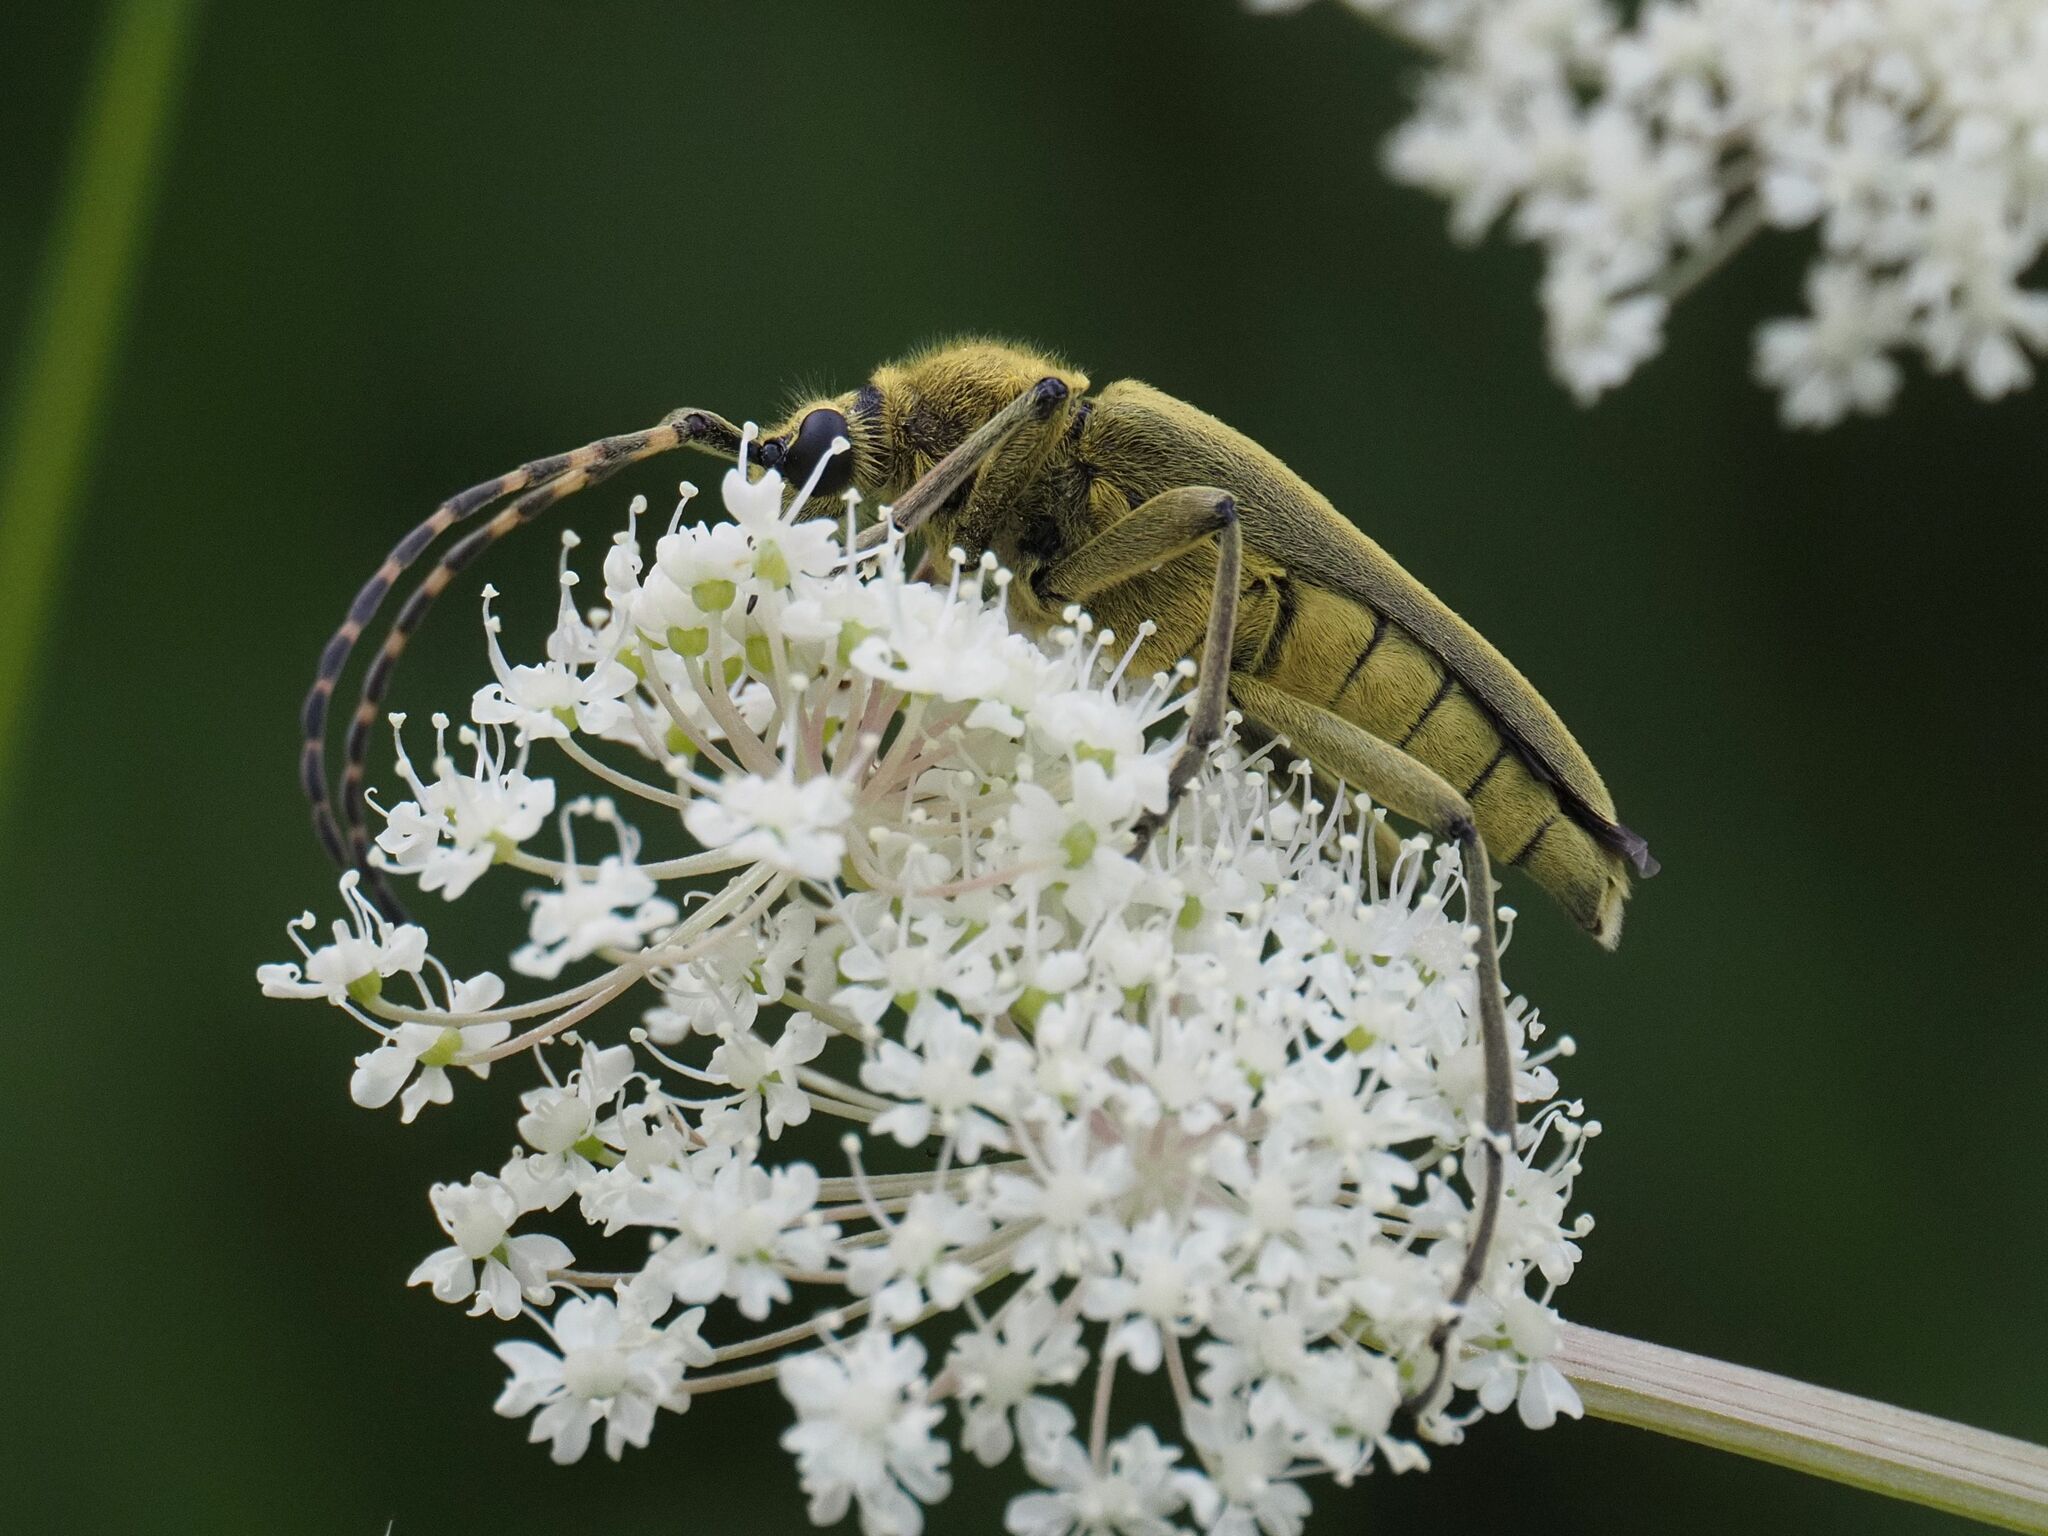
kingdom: Animalia
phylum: Arthropoda
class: Insecta
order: Coleoptera
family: Cerambycidae
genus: Lepturobosca
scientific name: Lepturobosca virens
